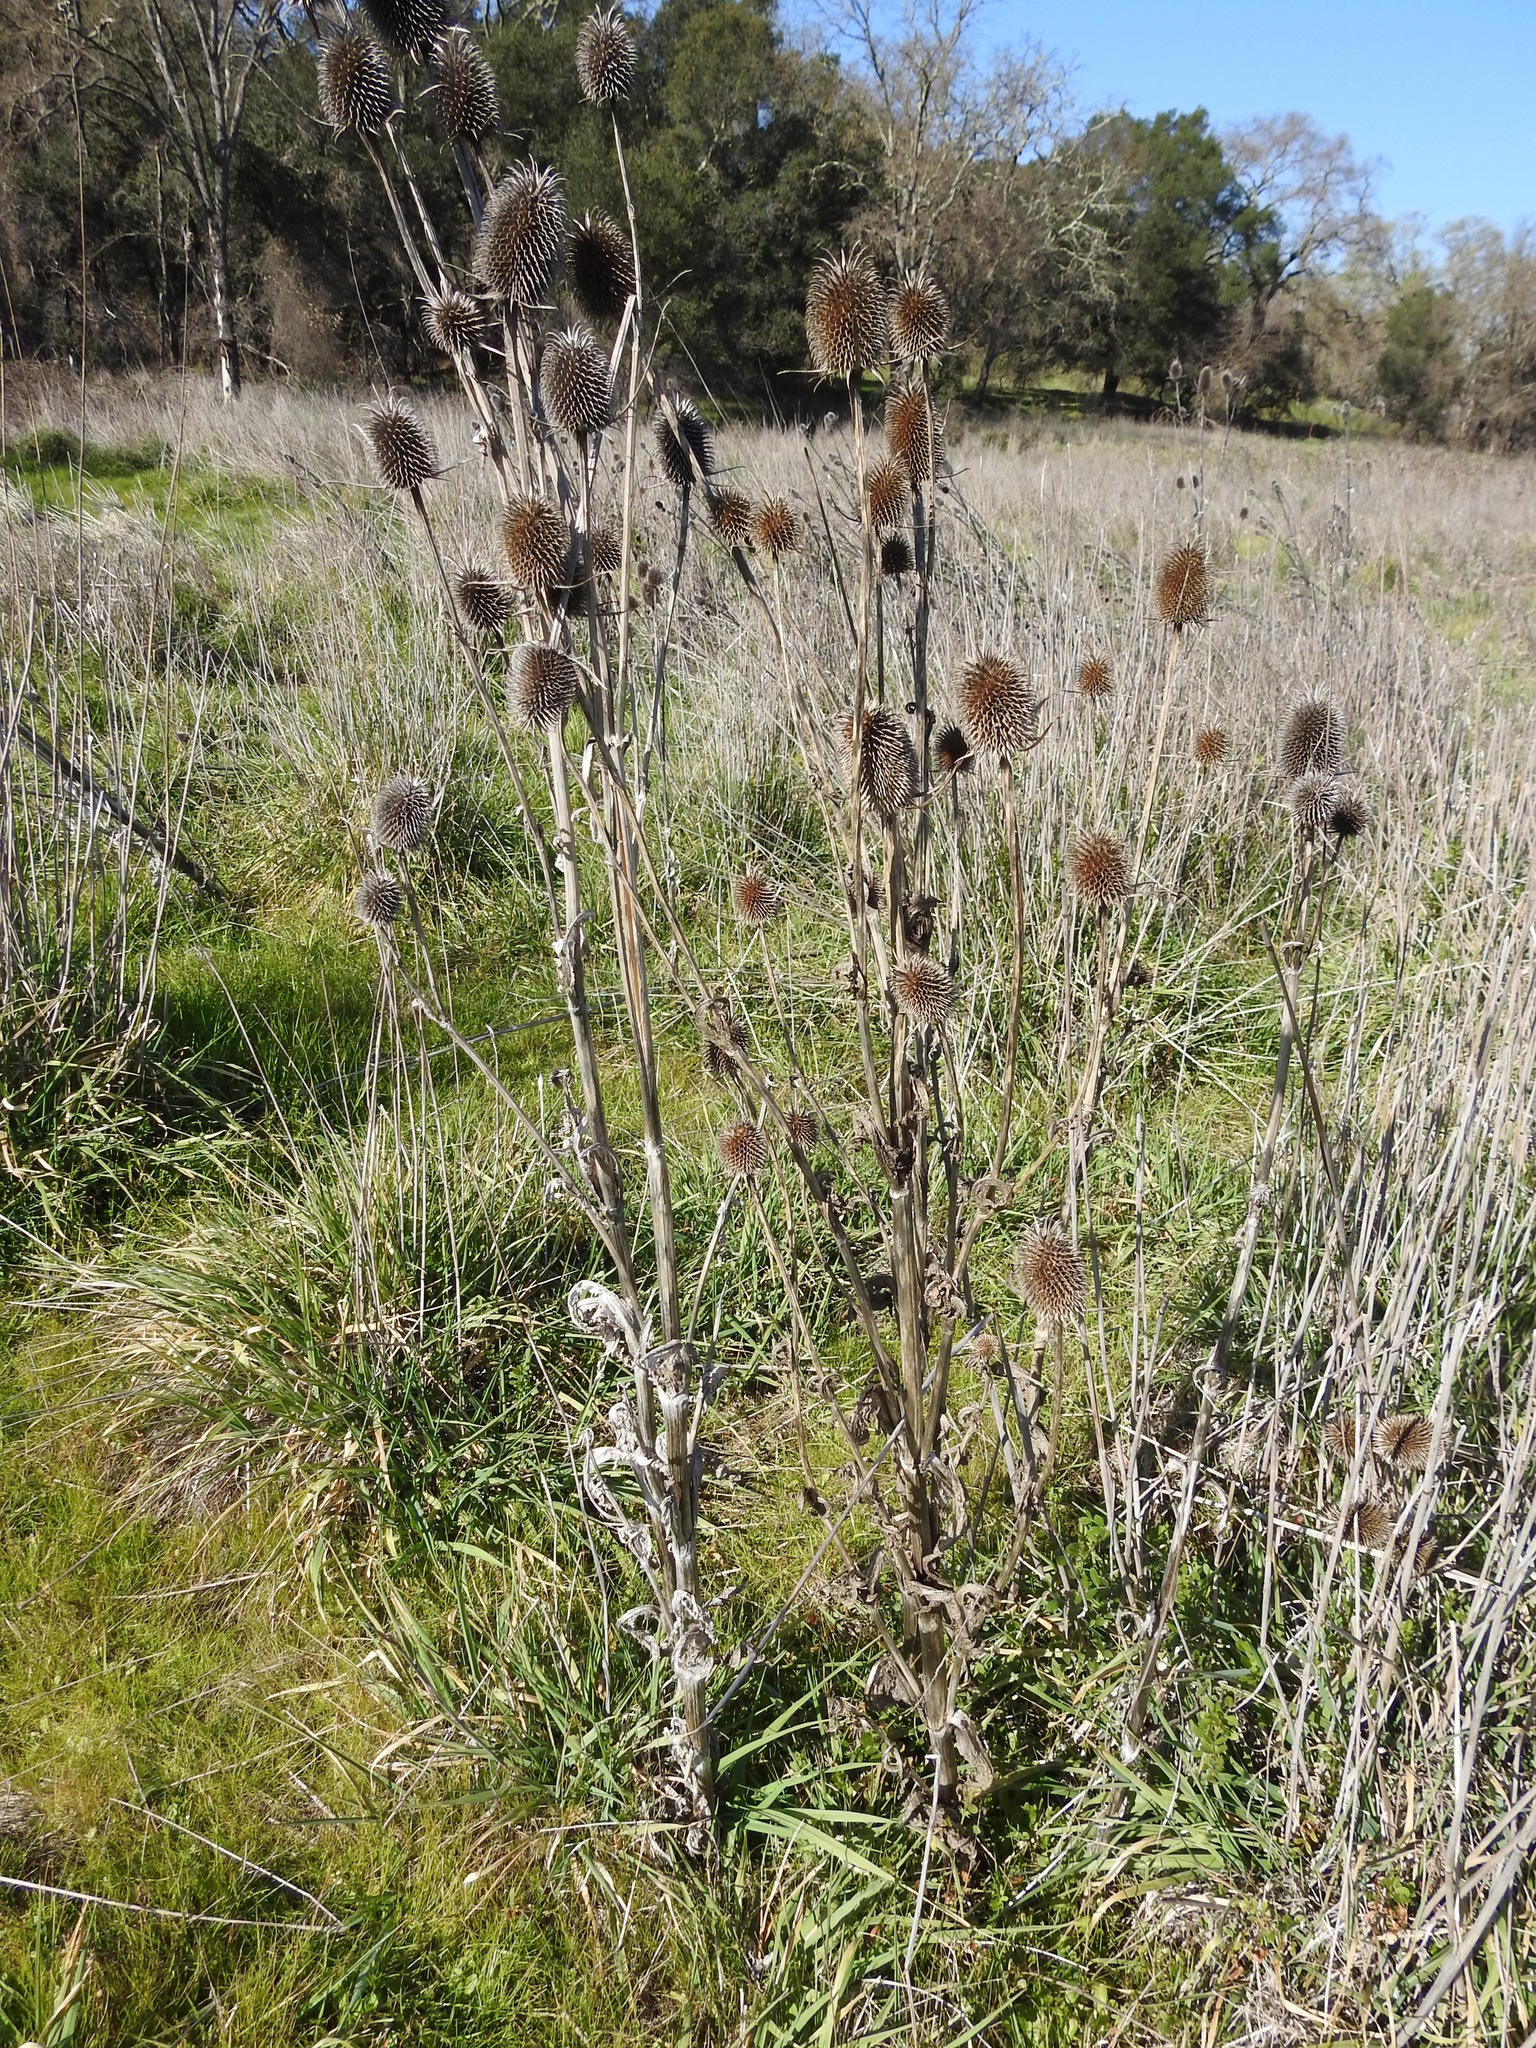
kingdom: Plantae
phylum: Tracheophyta
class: Magnoliopsida
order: Dipsacales
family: Caprifoliaceae
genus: Dipsacus
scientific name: Dipsacus sativus
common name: Fuller's teasel
